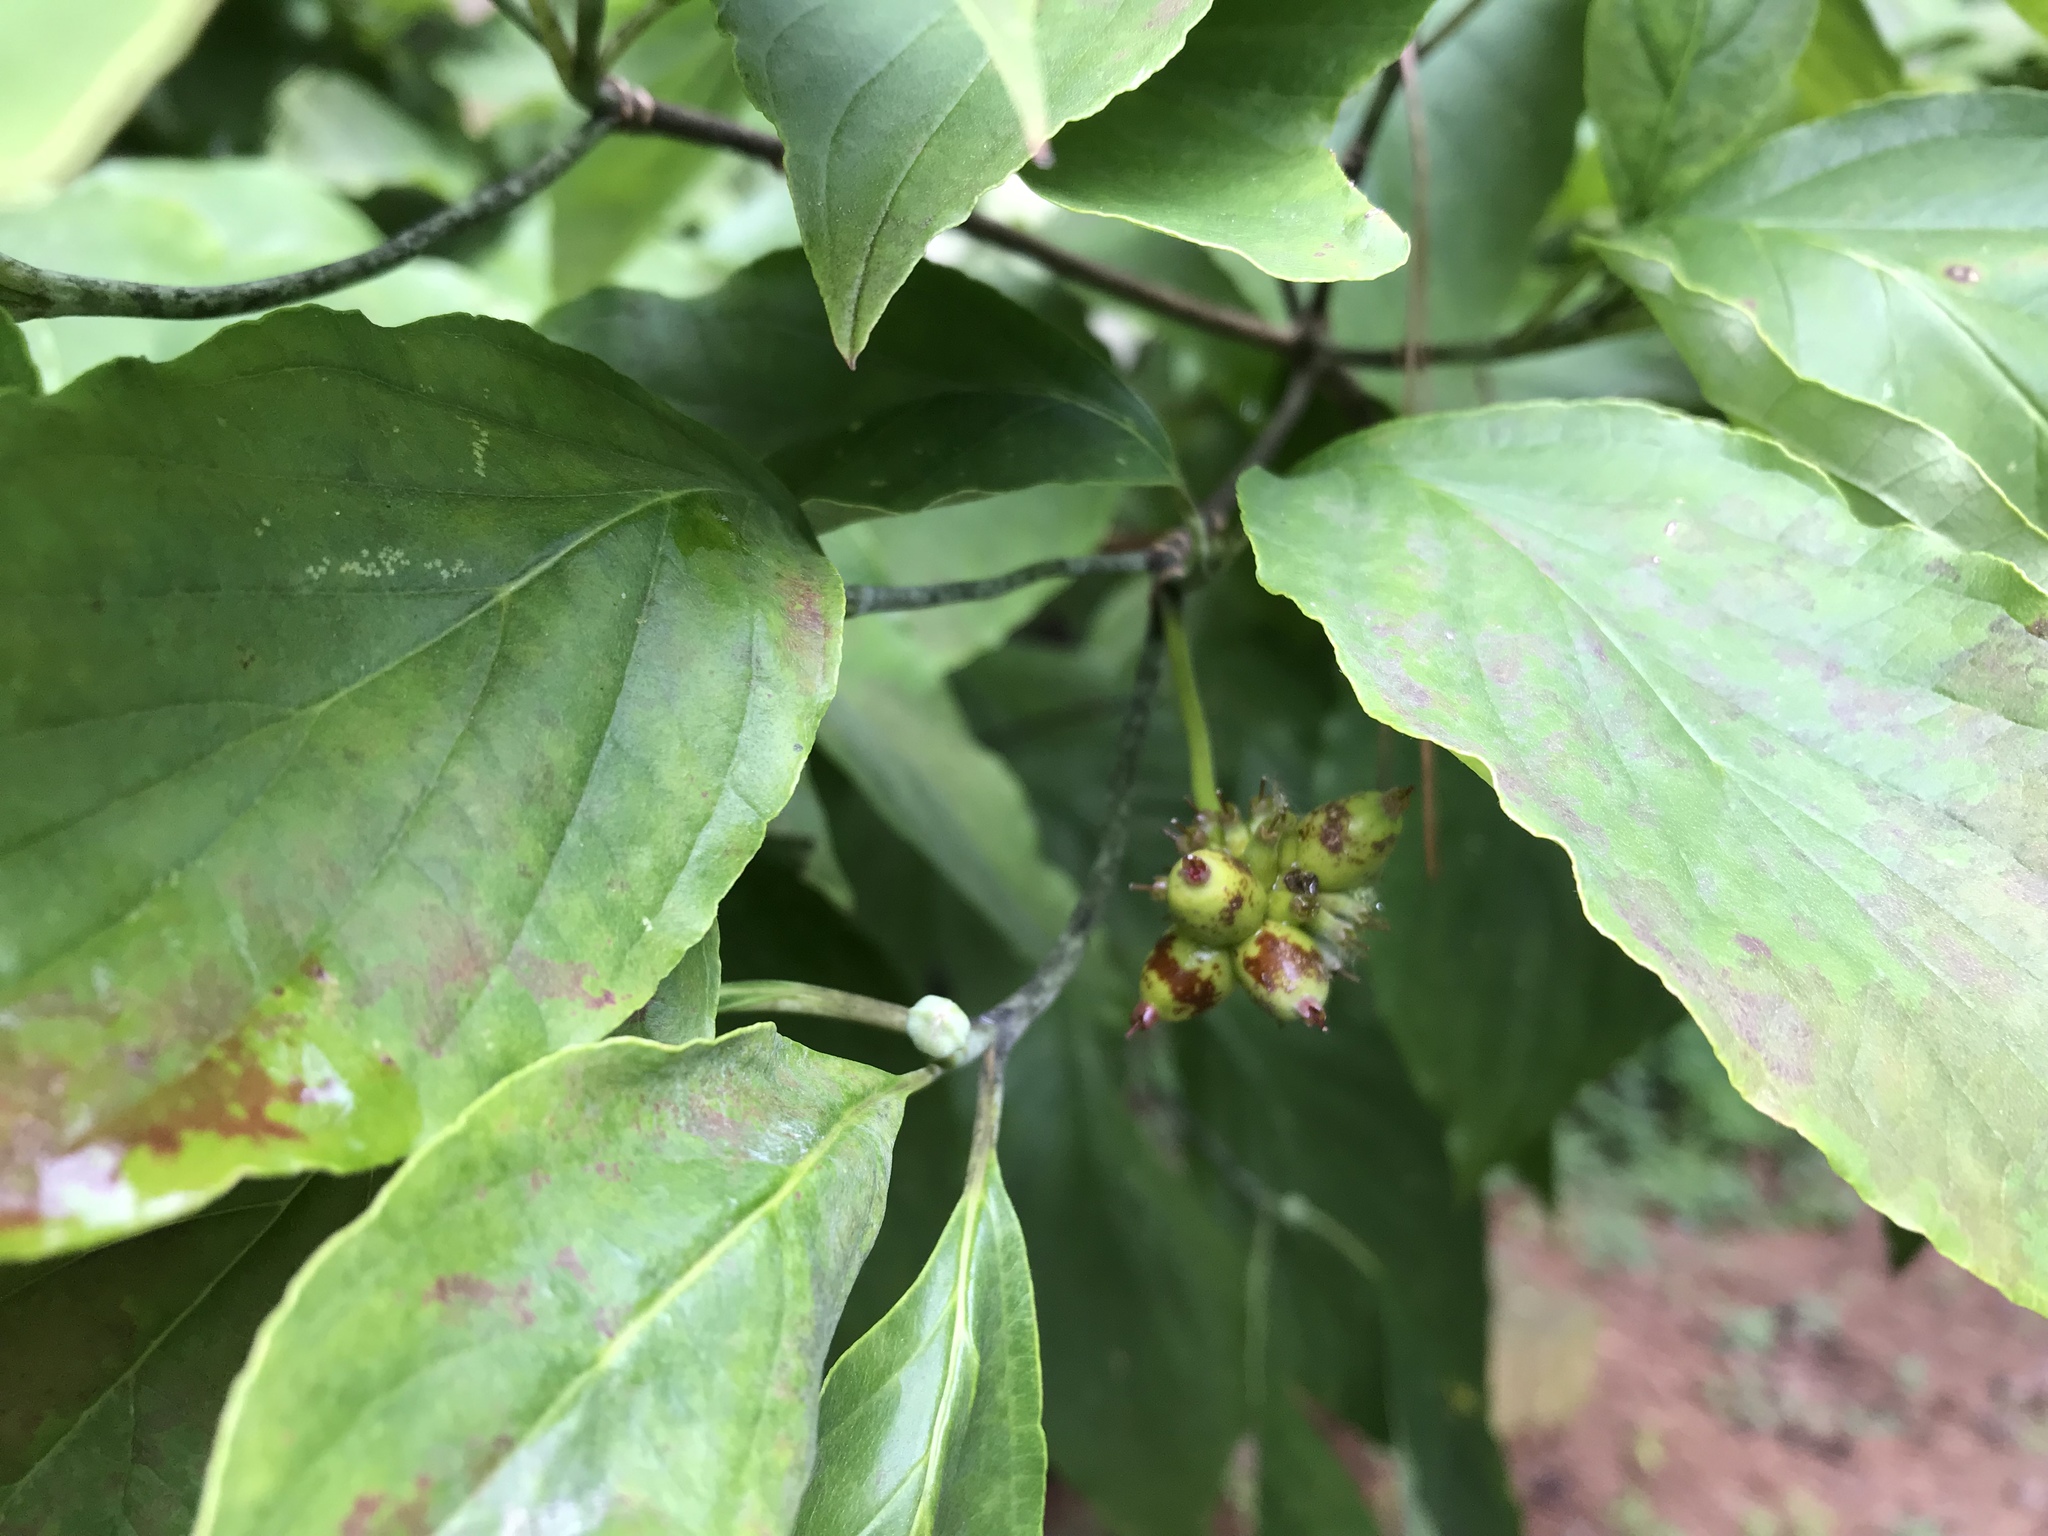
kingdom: Plantae
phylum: Tracheophyta
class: Magnoliopsida
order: Cornales
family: Cornaceae
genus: Cornus
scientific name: Cornus florida
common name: Flowering dogwood
